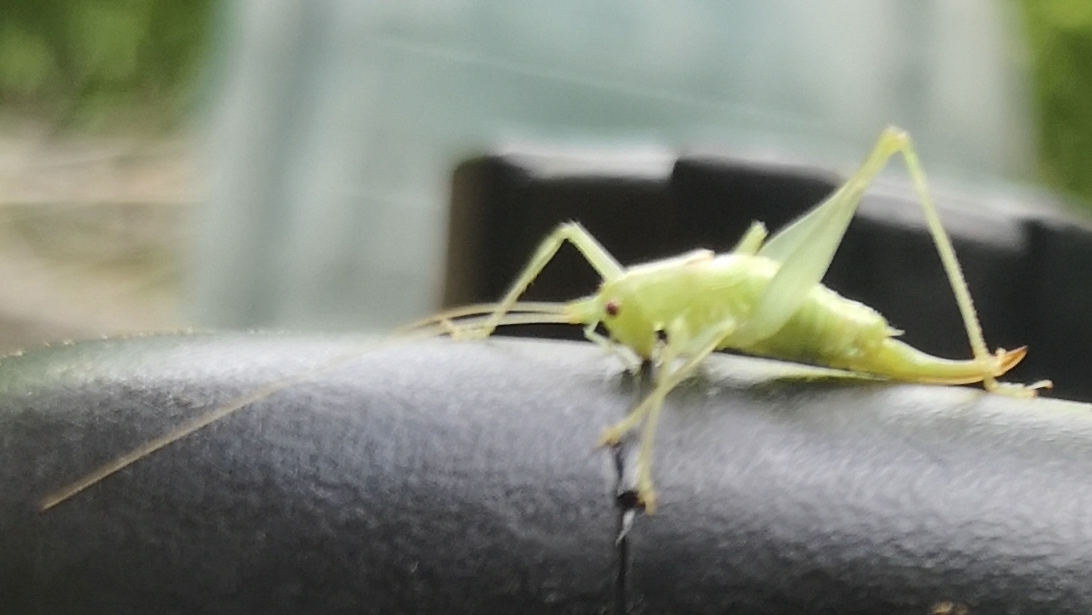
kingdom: Animalia
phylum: Arthropoda
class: Insecta
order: Orthoptera
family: Tettigoniidae
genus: Meconema
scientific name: Meconema meridionale
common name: Southern oak bush-cricket
